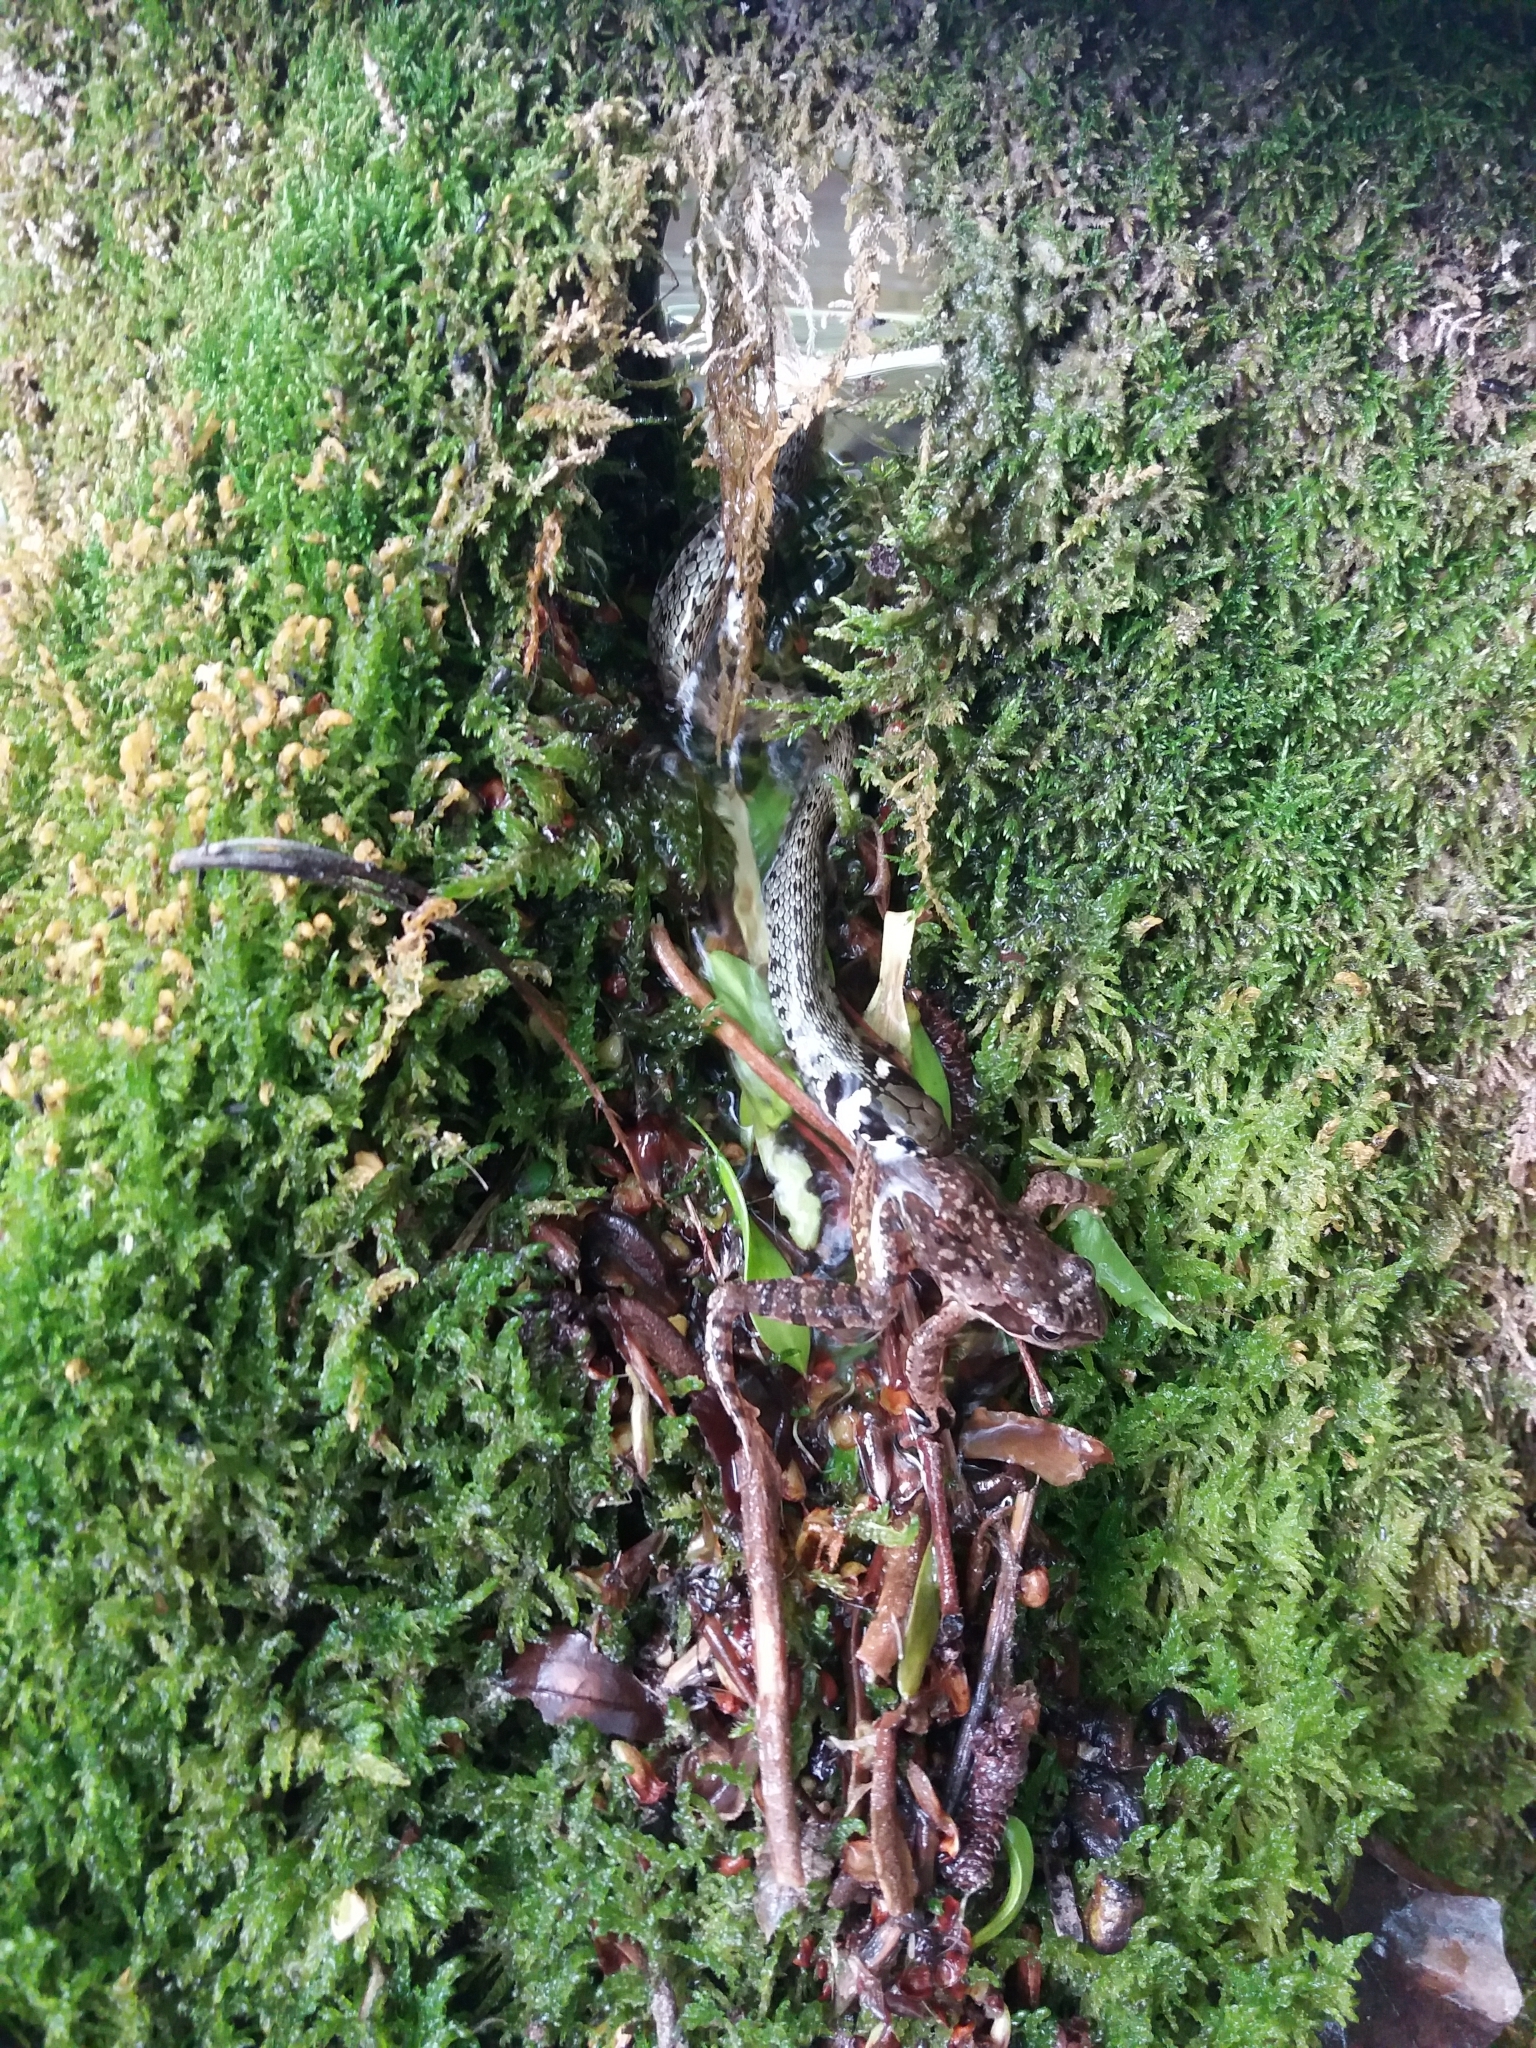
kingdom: Animalia
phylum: Chordata
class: Squamata
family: Colubridae
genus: Natrix
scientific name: Natrix natrix
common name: Grass snake
